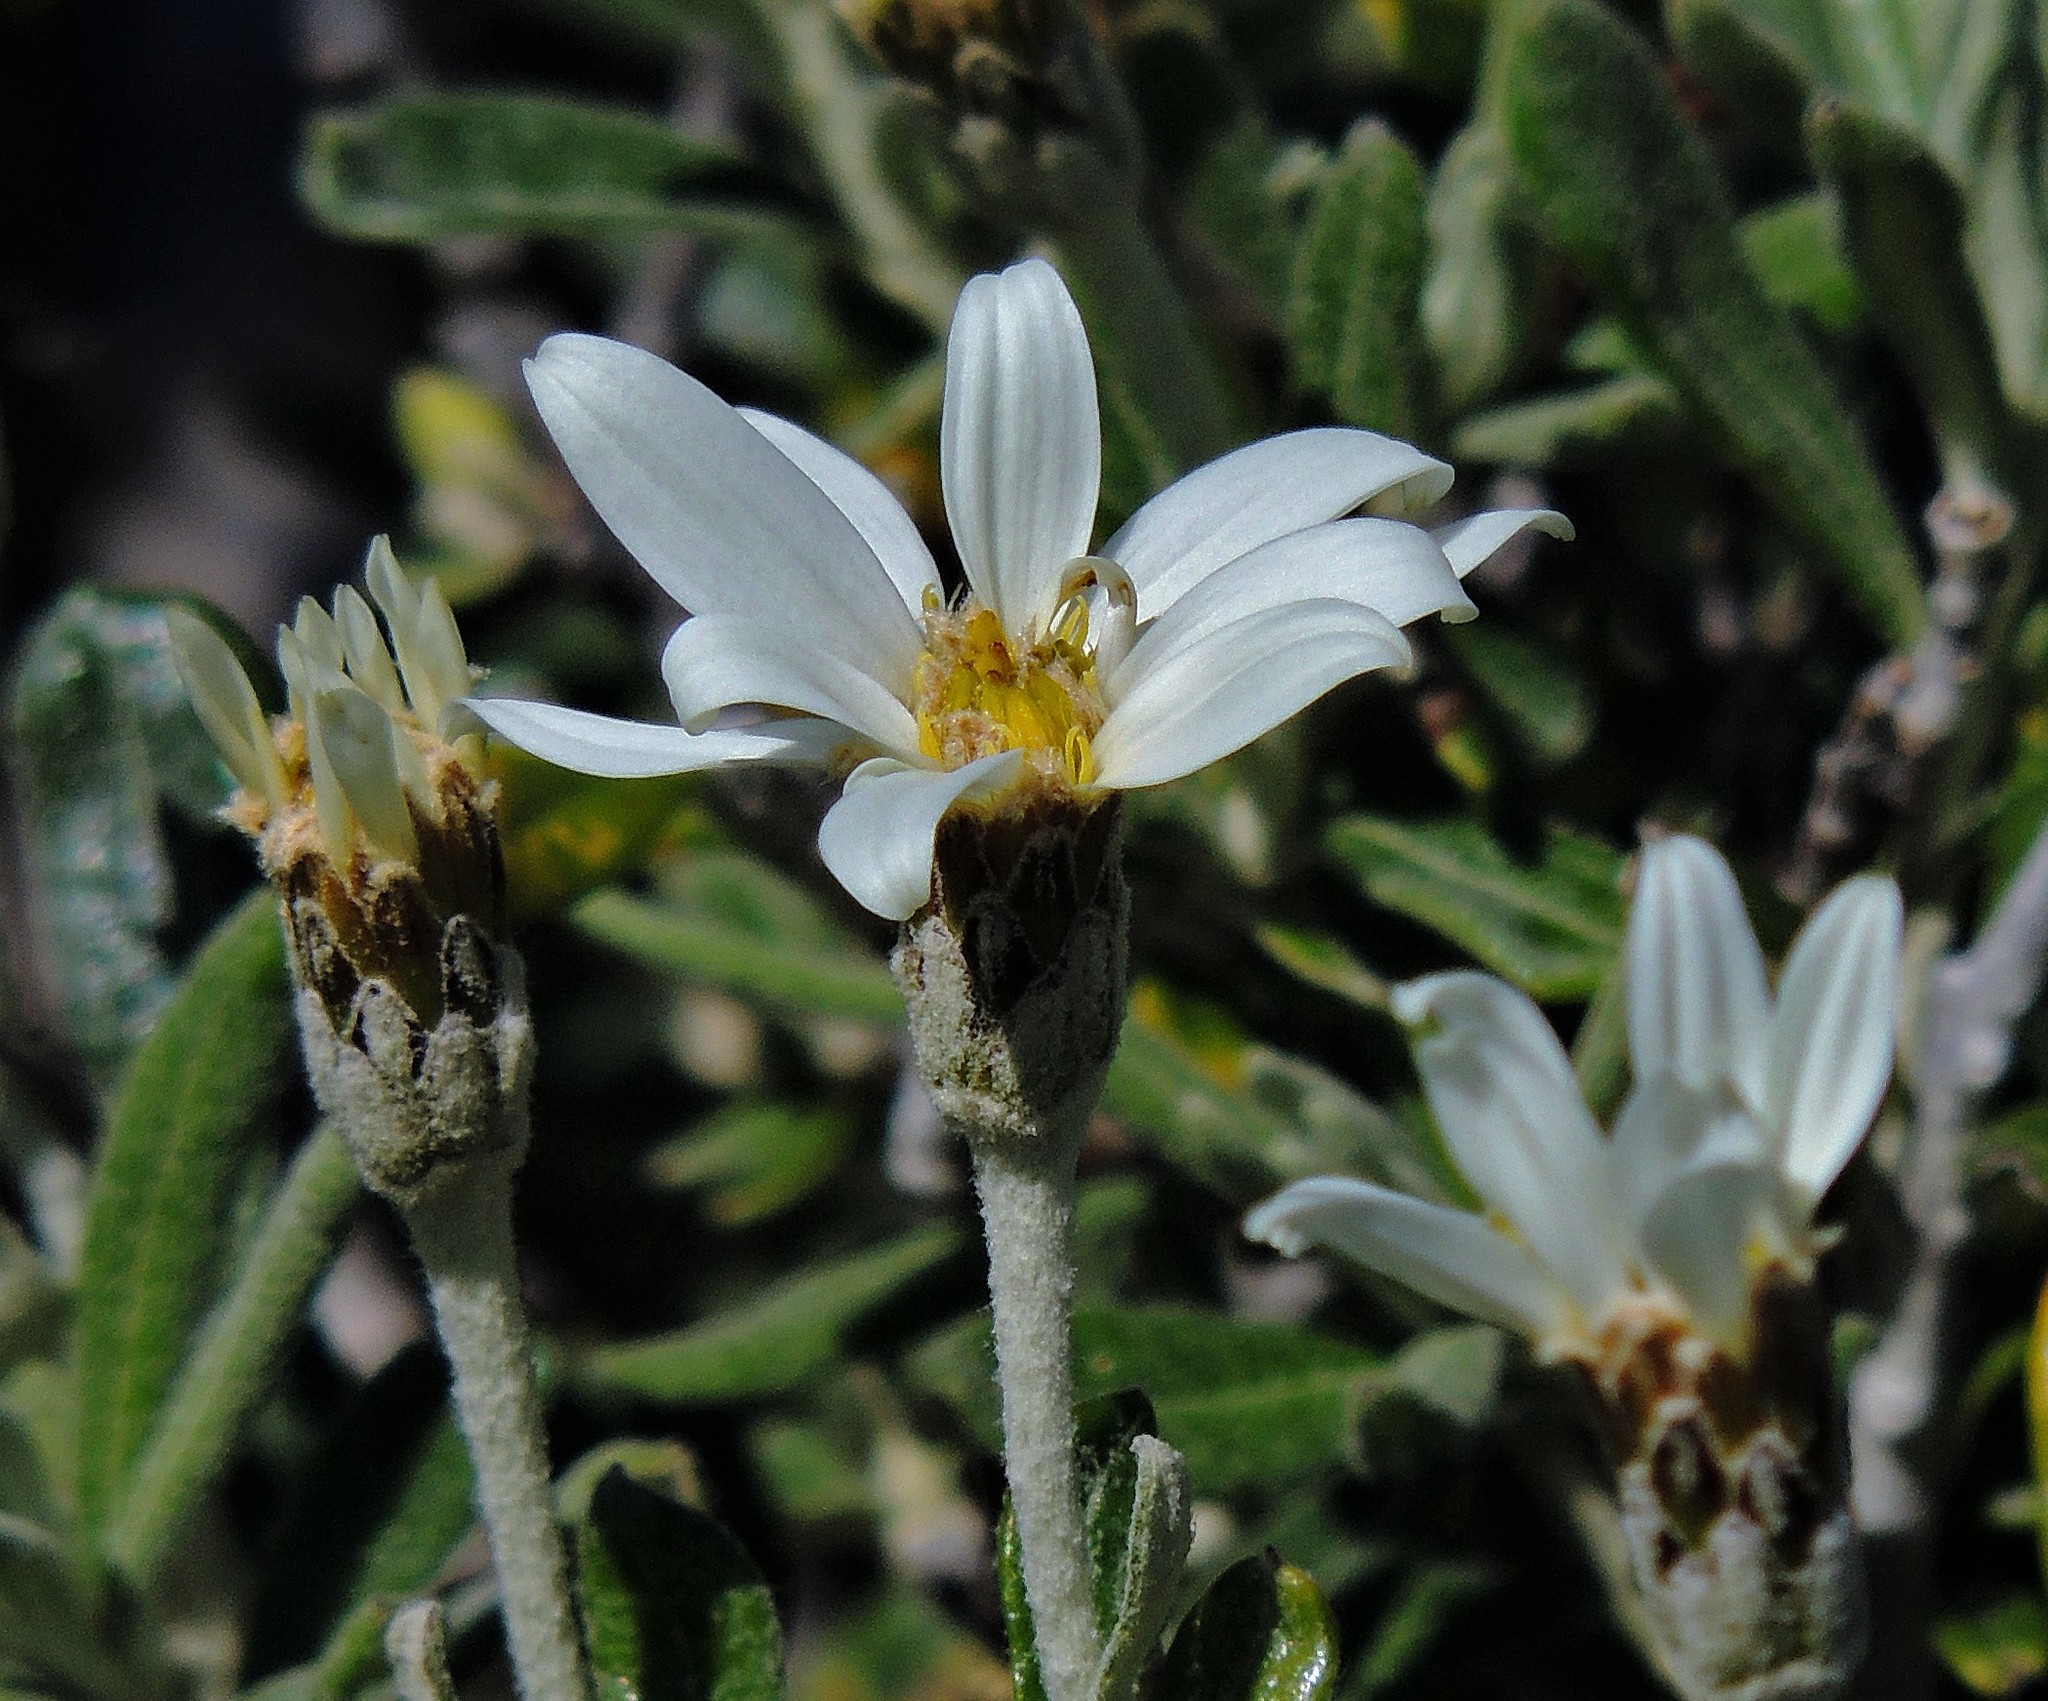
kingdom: Plantae
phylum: Tracheophyta
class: Magnoliopsida
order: Asterales
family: Asteraceae
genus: Chiliotrichum
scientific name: Chiliotrichum diffusum
